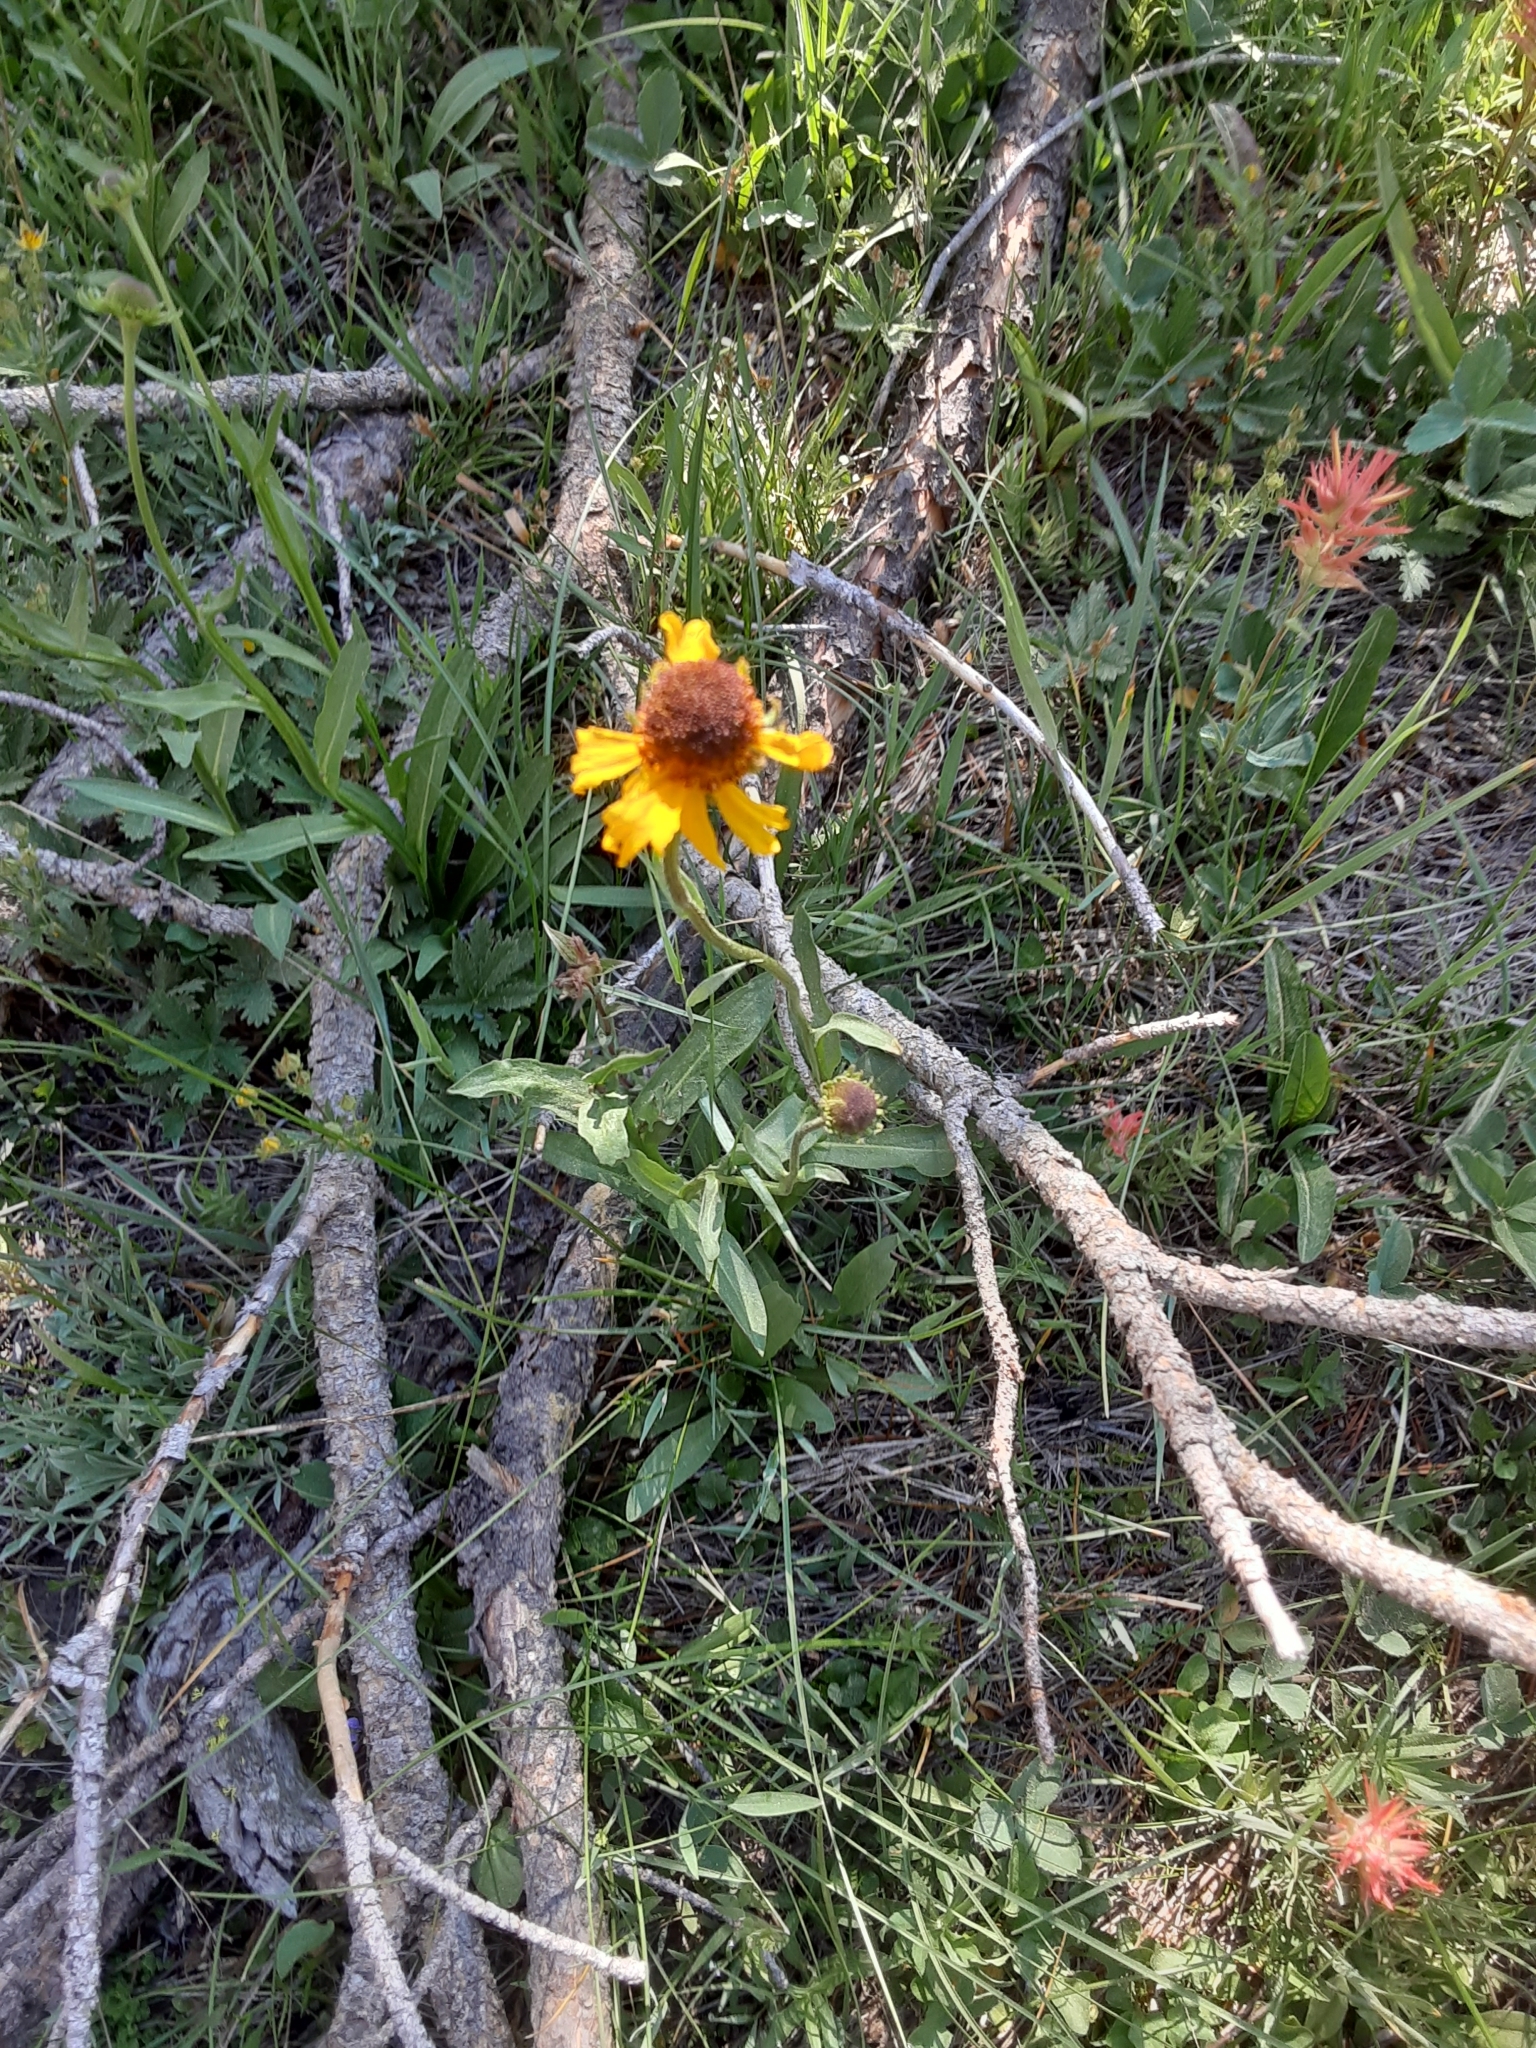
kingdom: Plantae
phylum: Tracheophyta
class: Magnoliopsida
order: Asterales
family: Asteraceae
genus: Helenium
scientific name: Helenium bigelovii
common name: Bigelow's sneezeweed
